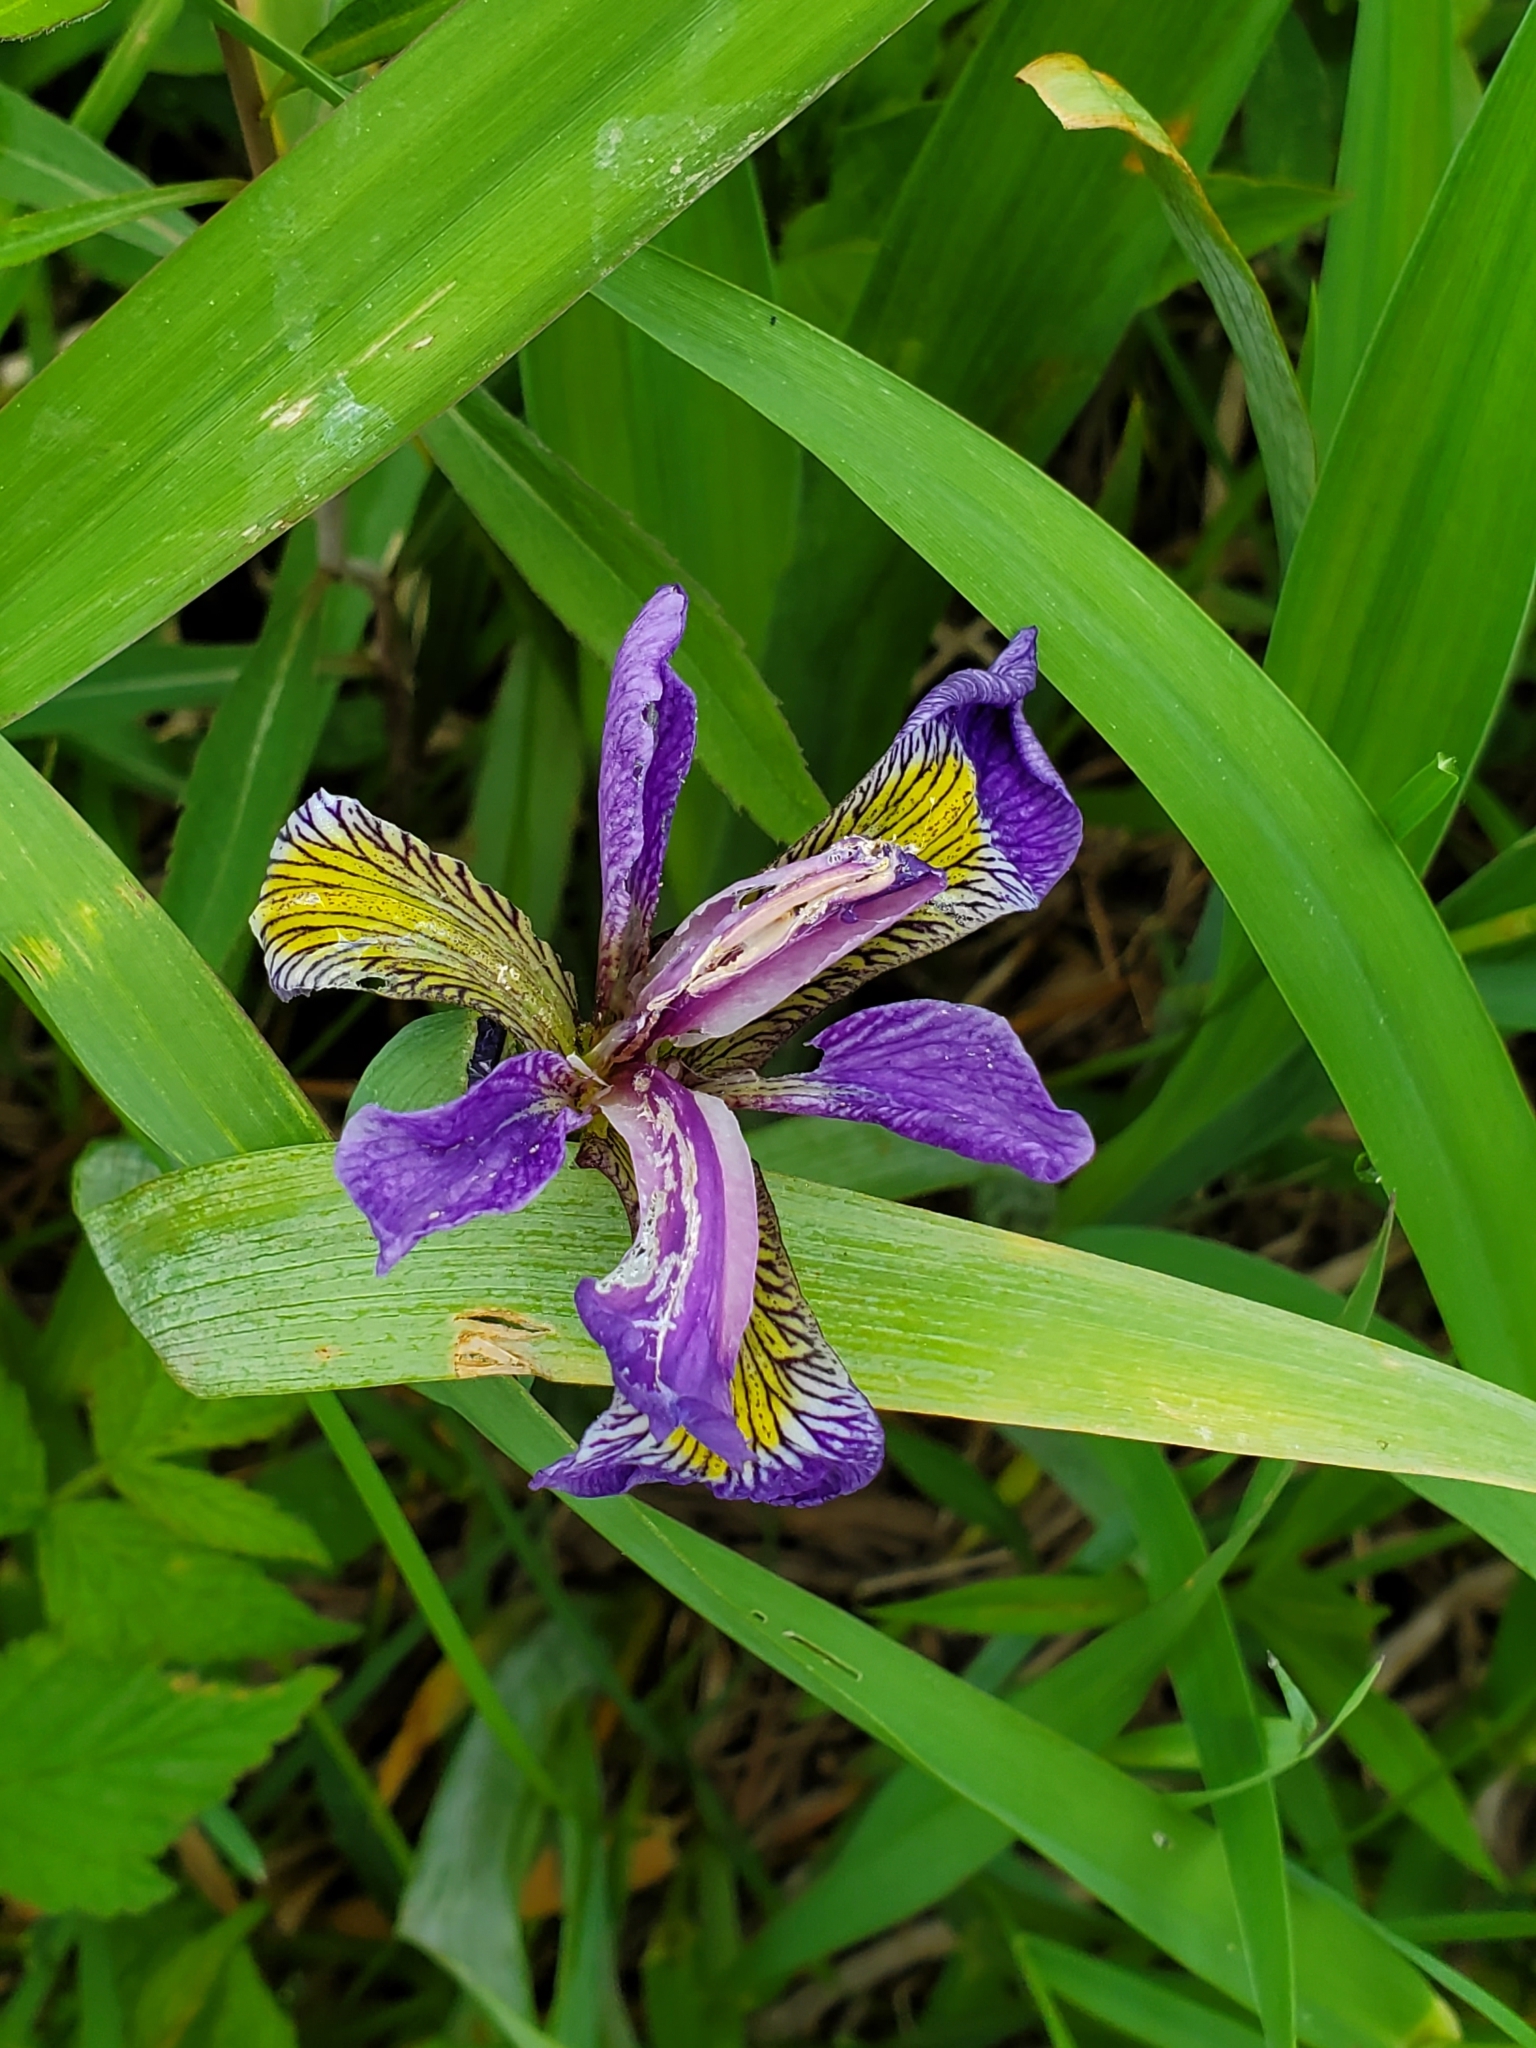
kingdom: Plantae
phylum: Tracheophyta
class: Liliopsida
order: Asparagales
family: Iridaceae
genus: Iris
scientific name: Iris versicolor
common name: Purple iris
